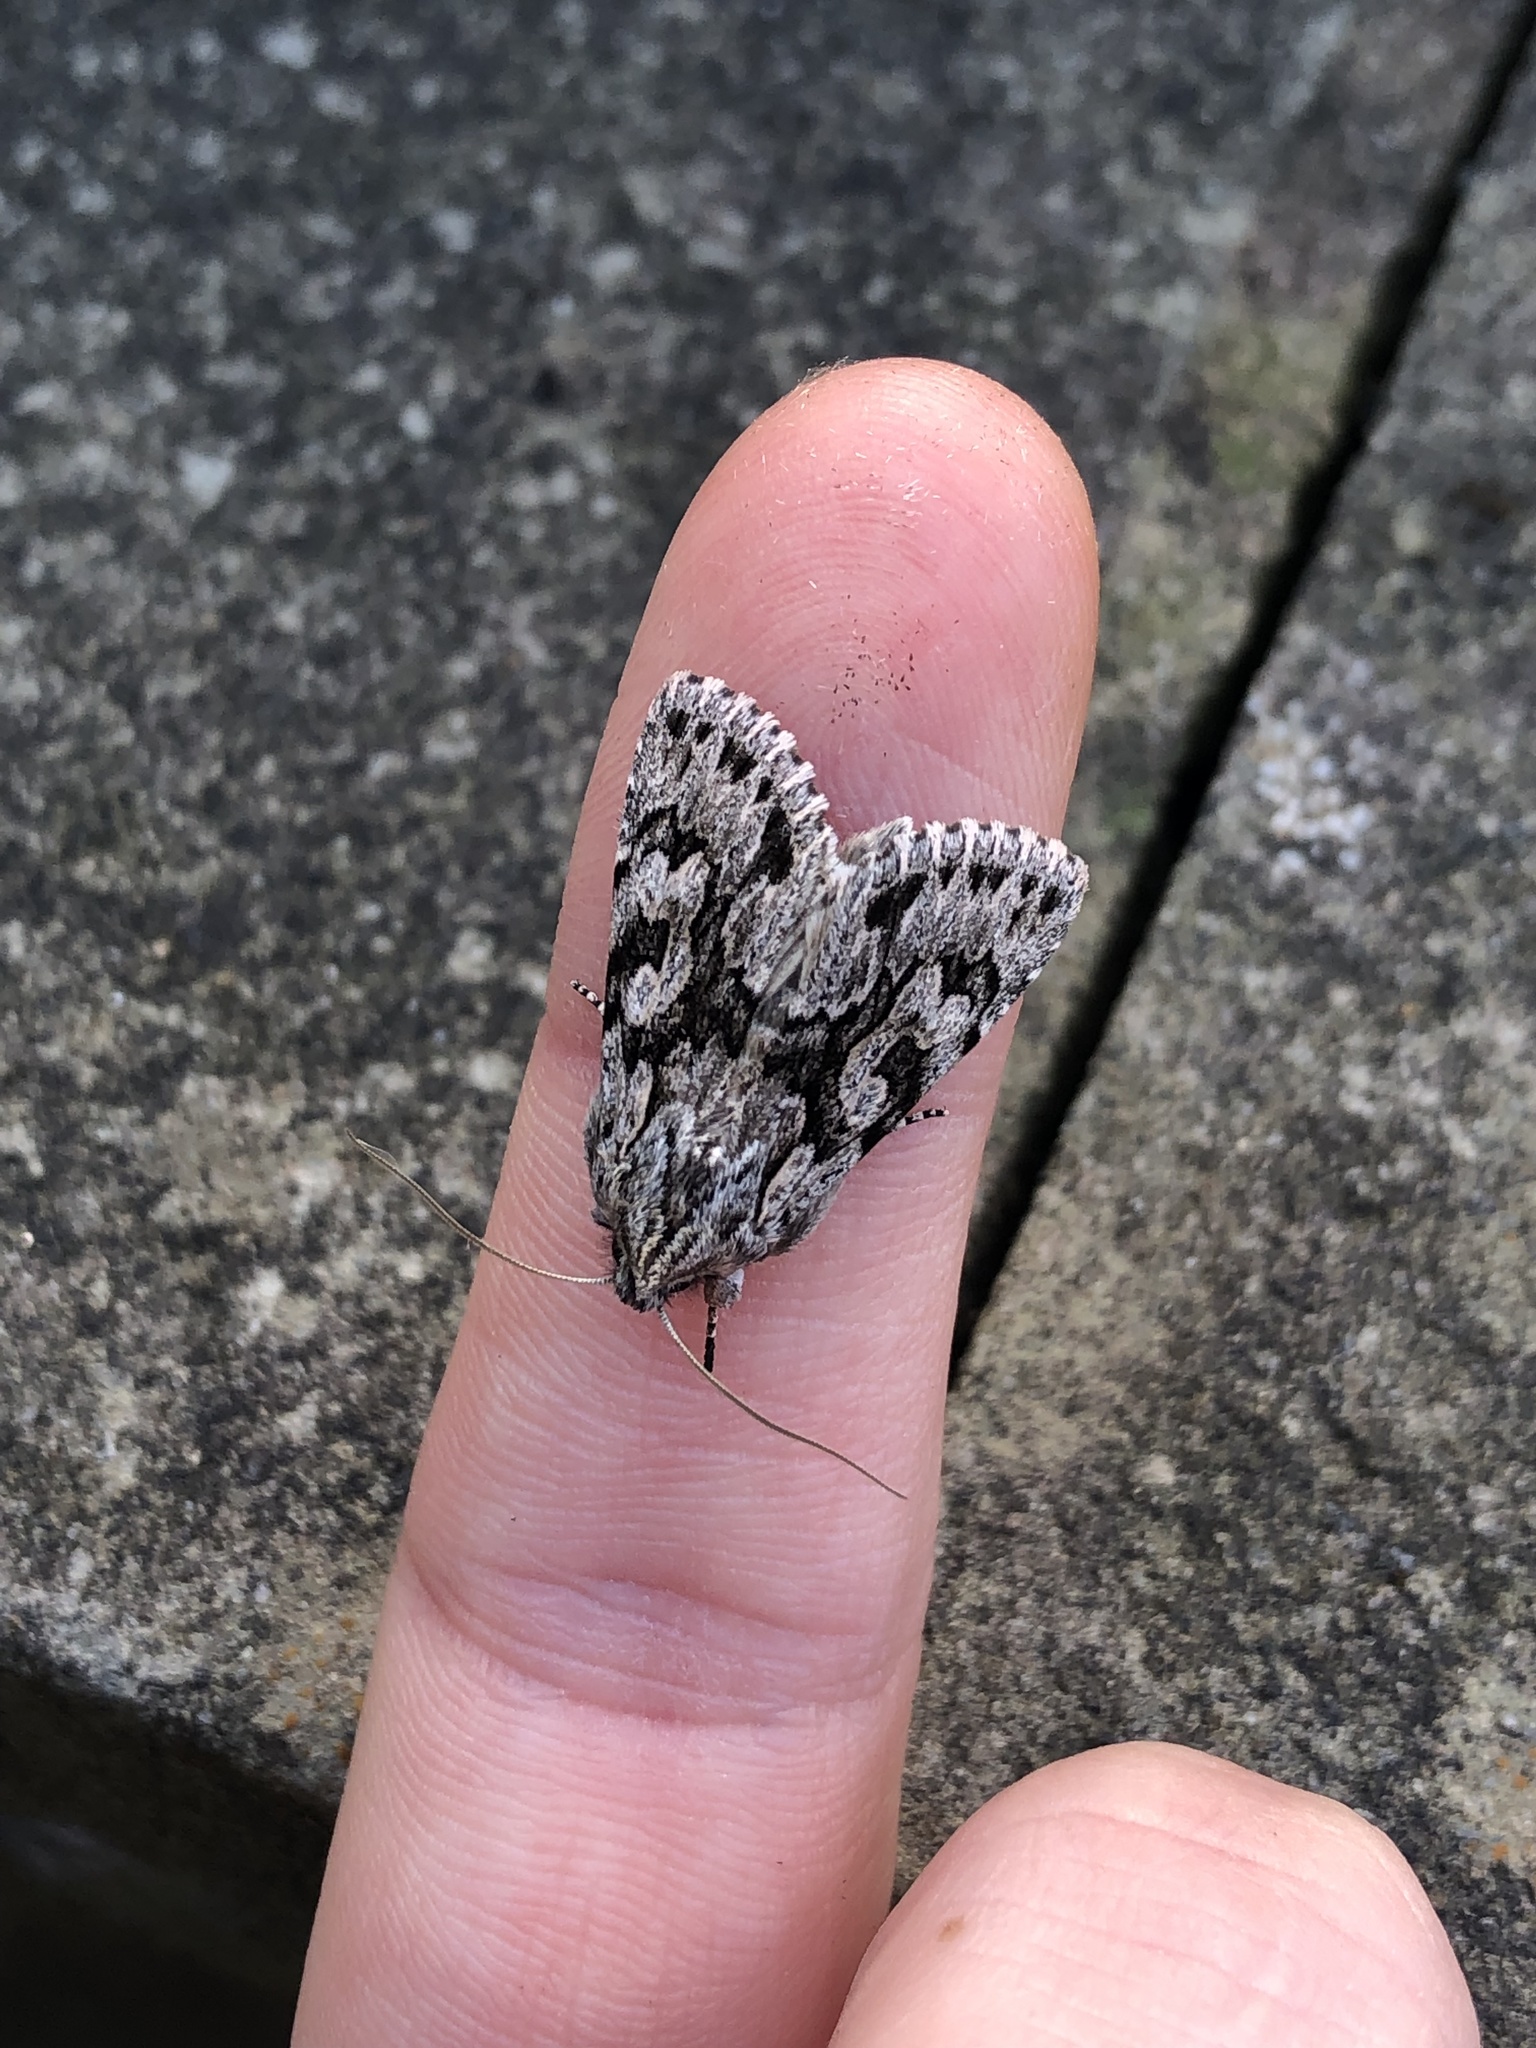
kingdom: Animalia
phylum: Arthropoda
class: Insecta
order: Lepidoptera
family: Noctuidae
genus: Xylocampa
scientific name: Xylocampa areola
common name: Early grey
